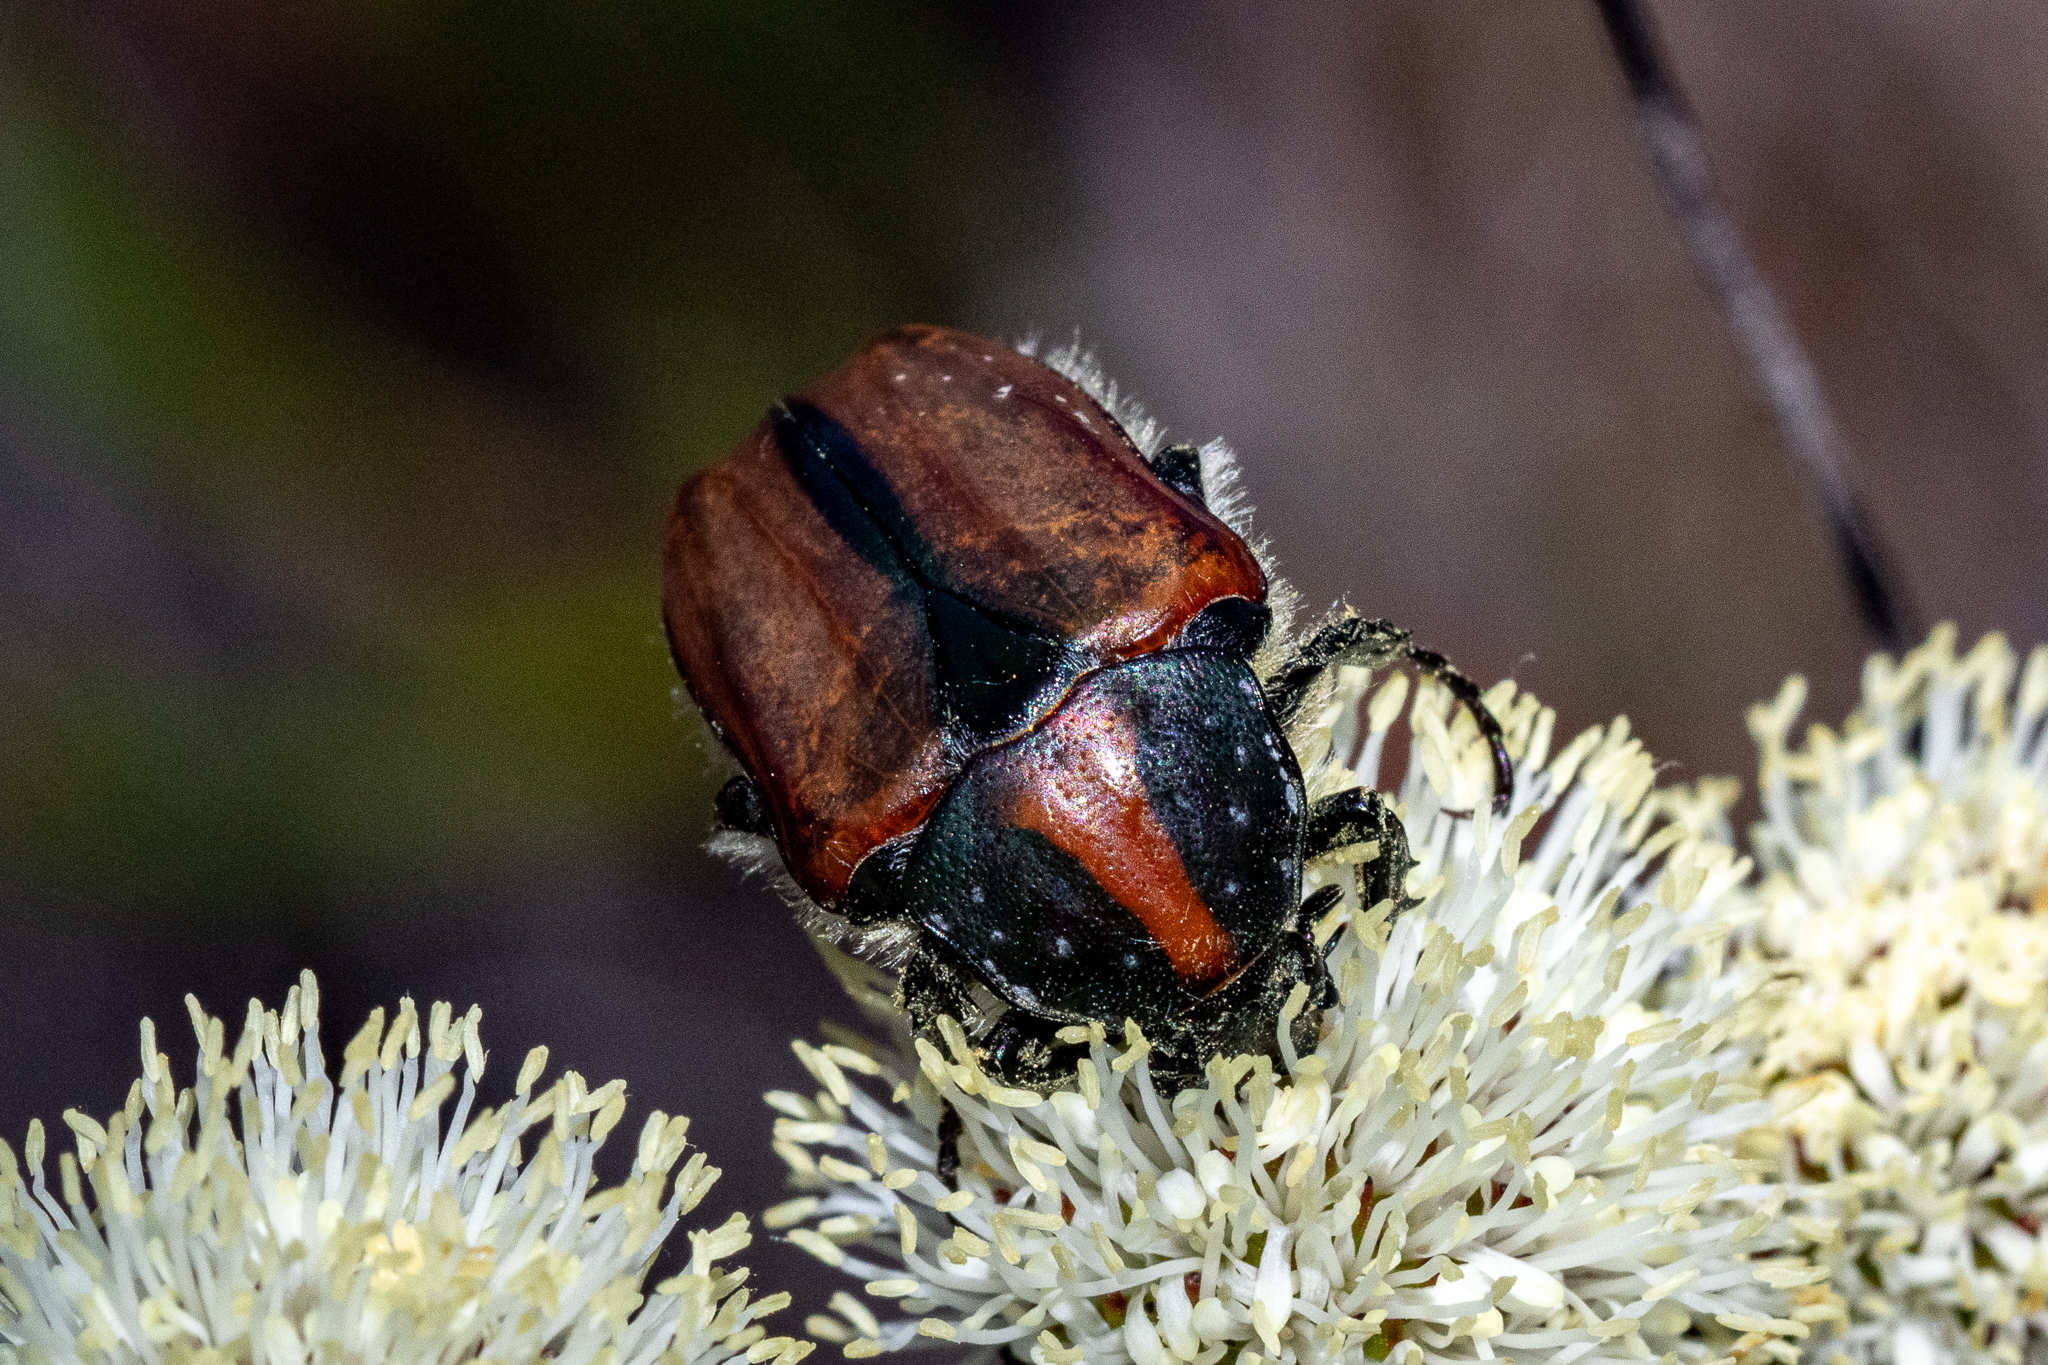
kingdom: Animalia
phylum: Arthropoda
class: Insecta
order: Coleoptera
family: Scarabaeidae
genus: Trichostetha
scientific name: Trichostetha capensis
